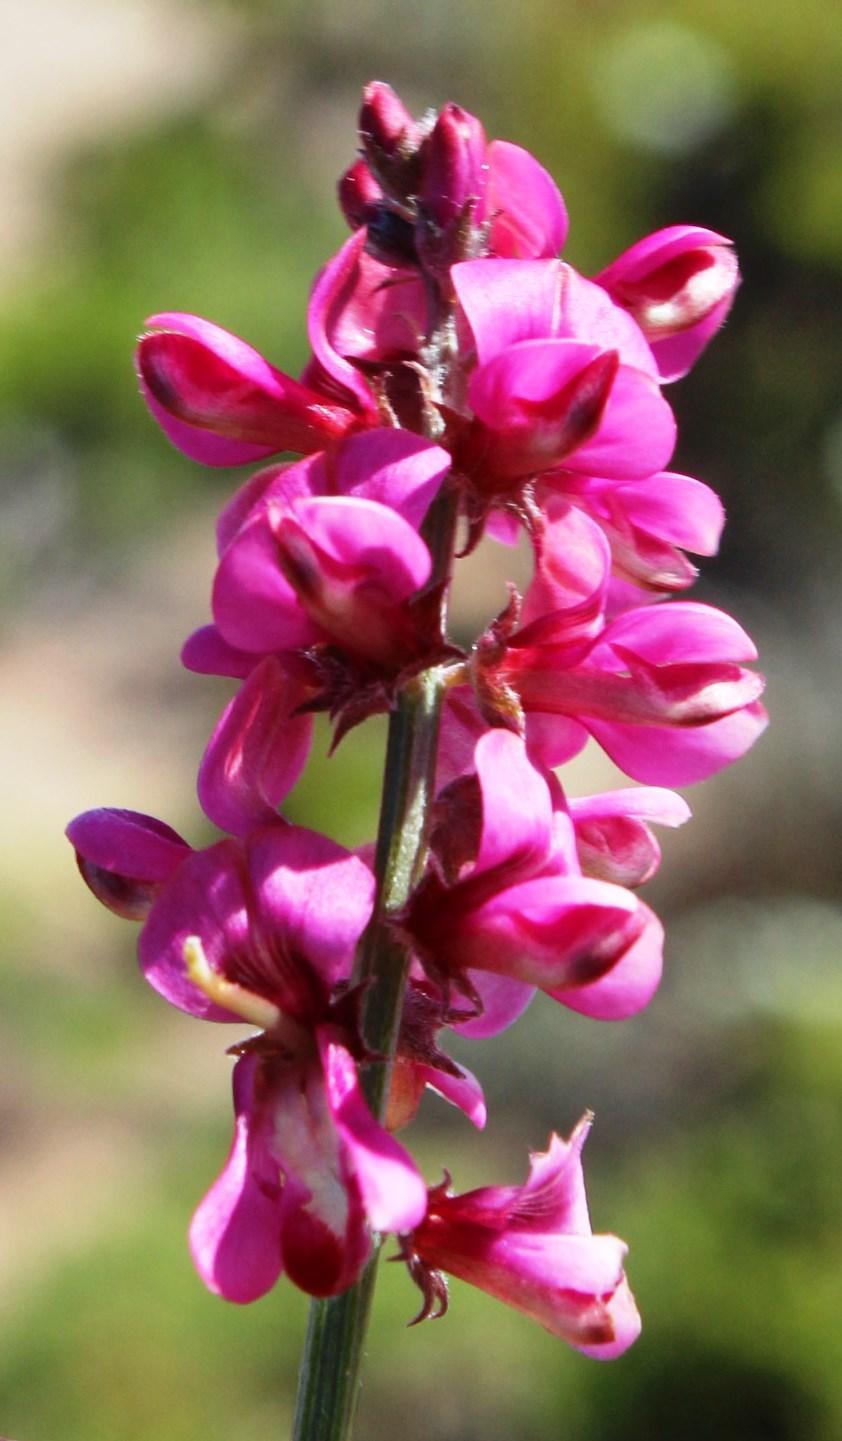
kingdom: Plantae
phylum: Tracheophyta
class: Magnoliopsida
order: Fabales
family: Fabaceae
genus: Indigofera
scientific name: Indigofera meyeriana
